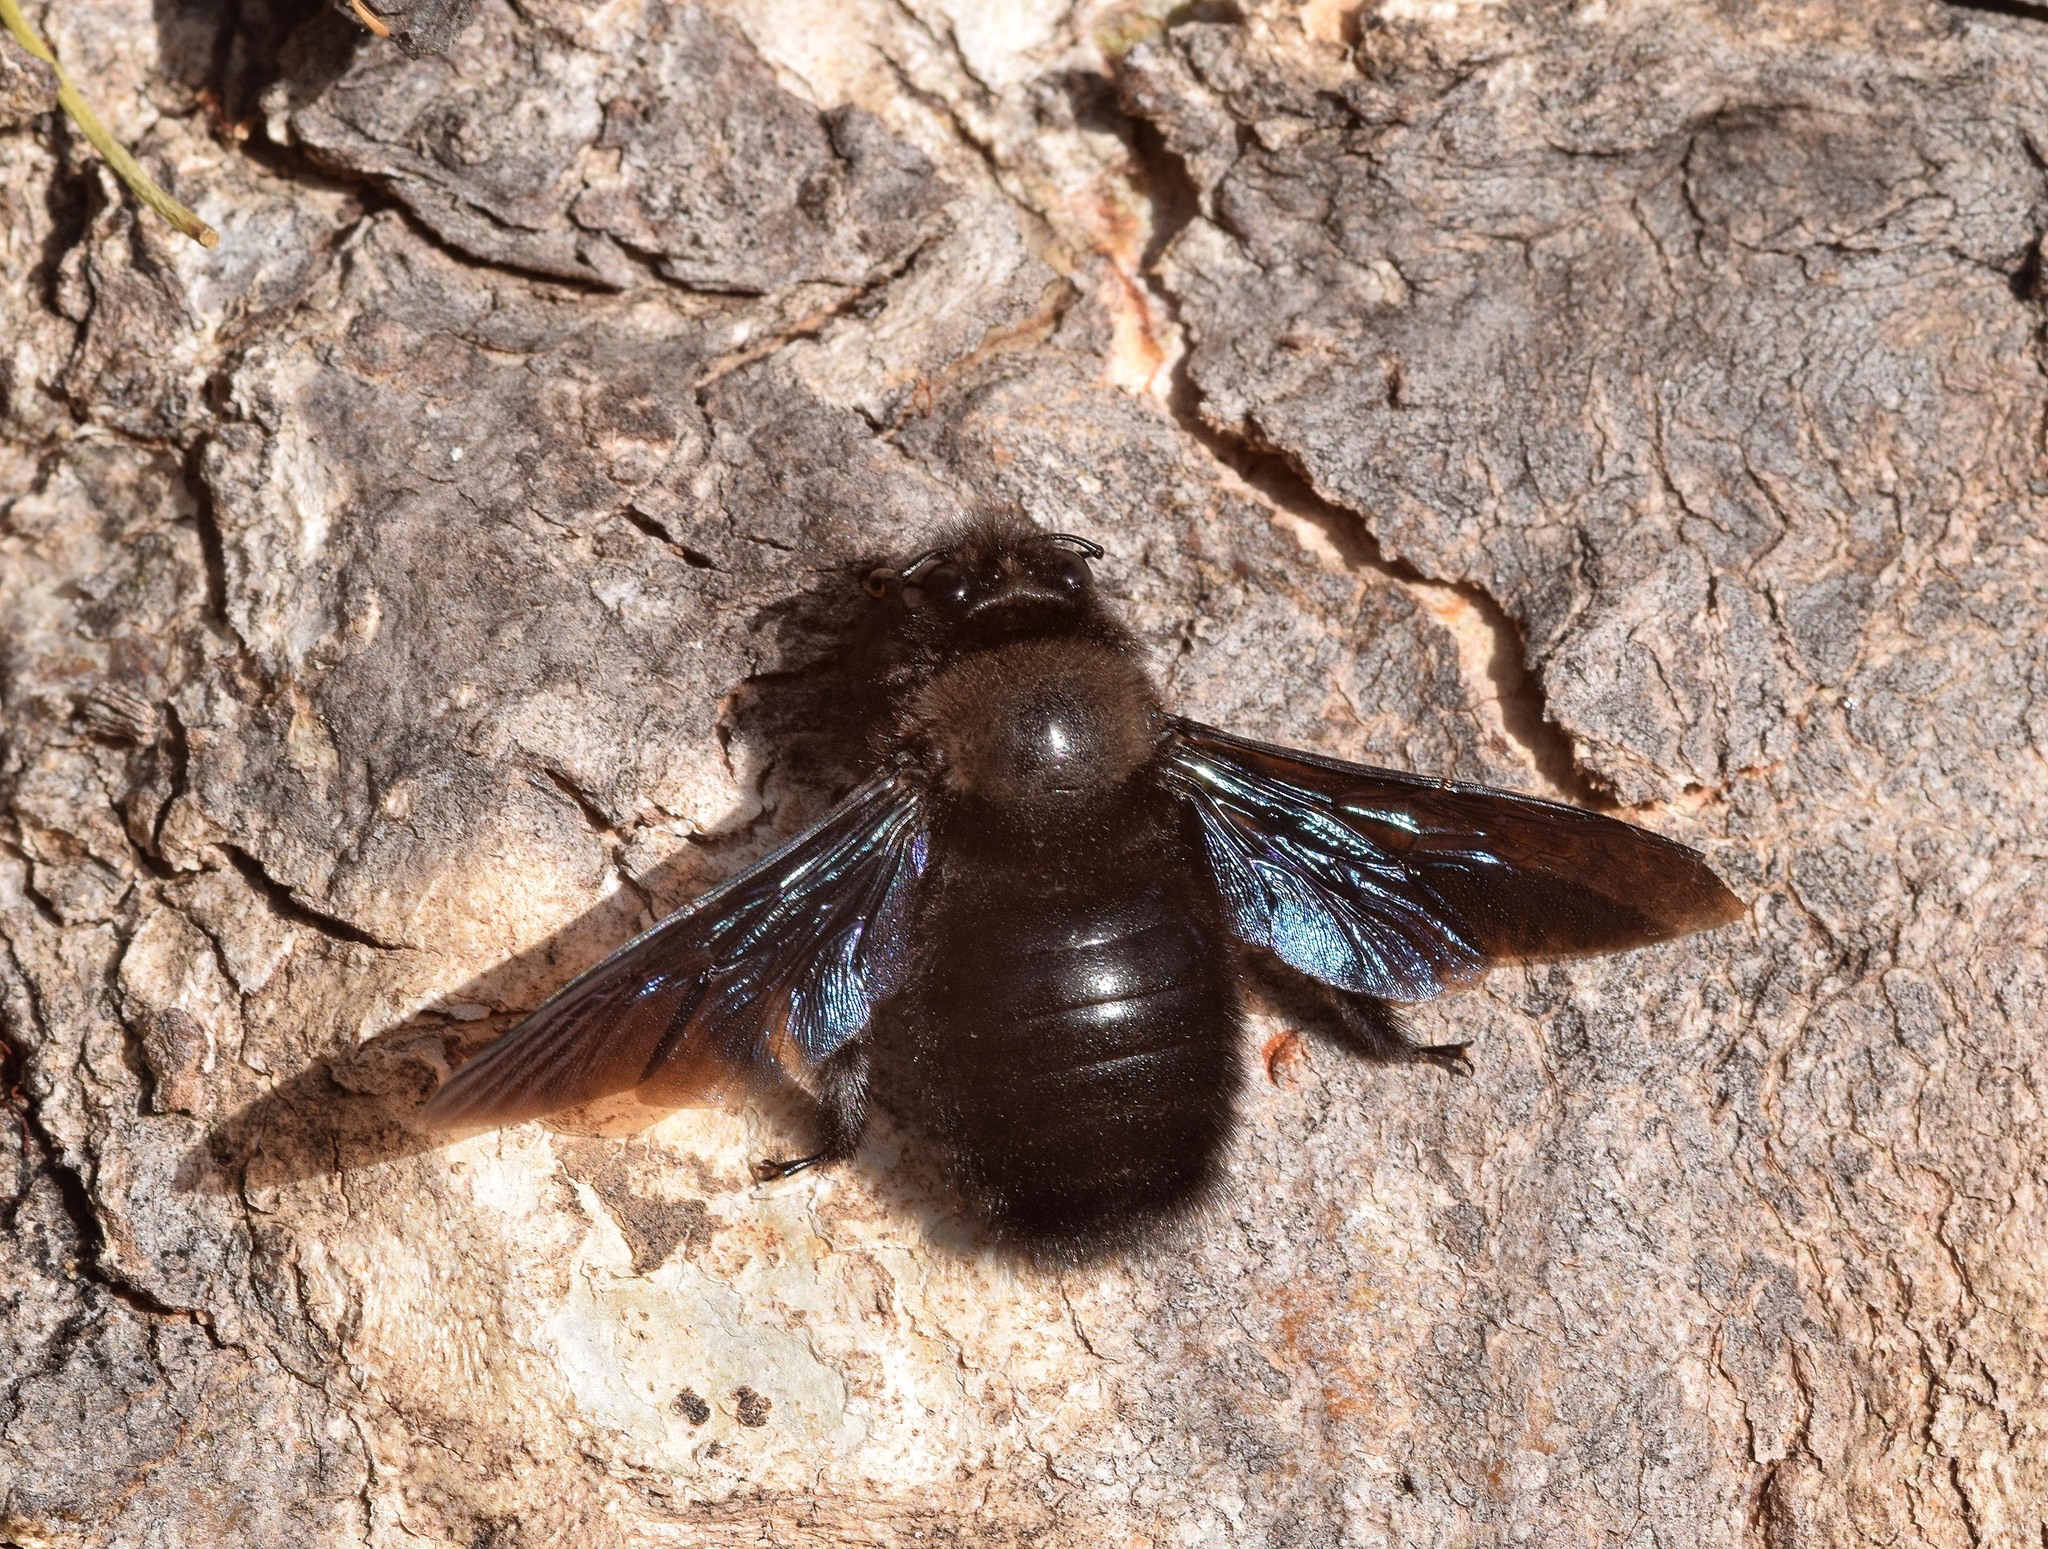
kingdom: Animalia
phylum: Arthropoda
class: Insecta
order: Hymenoptera
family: Apidae
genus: Xylocopa
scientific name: Xylocopa violacea
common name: Violet carpenter bee
